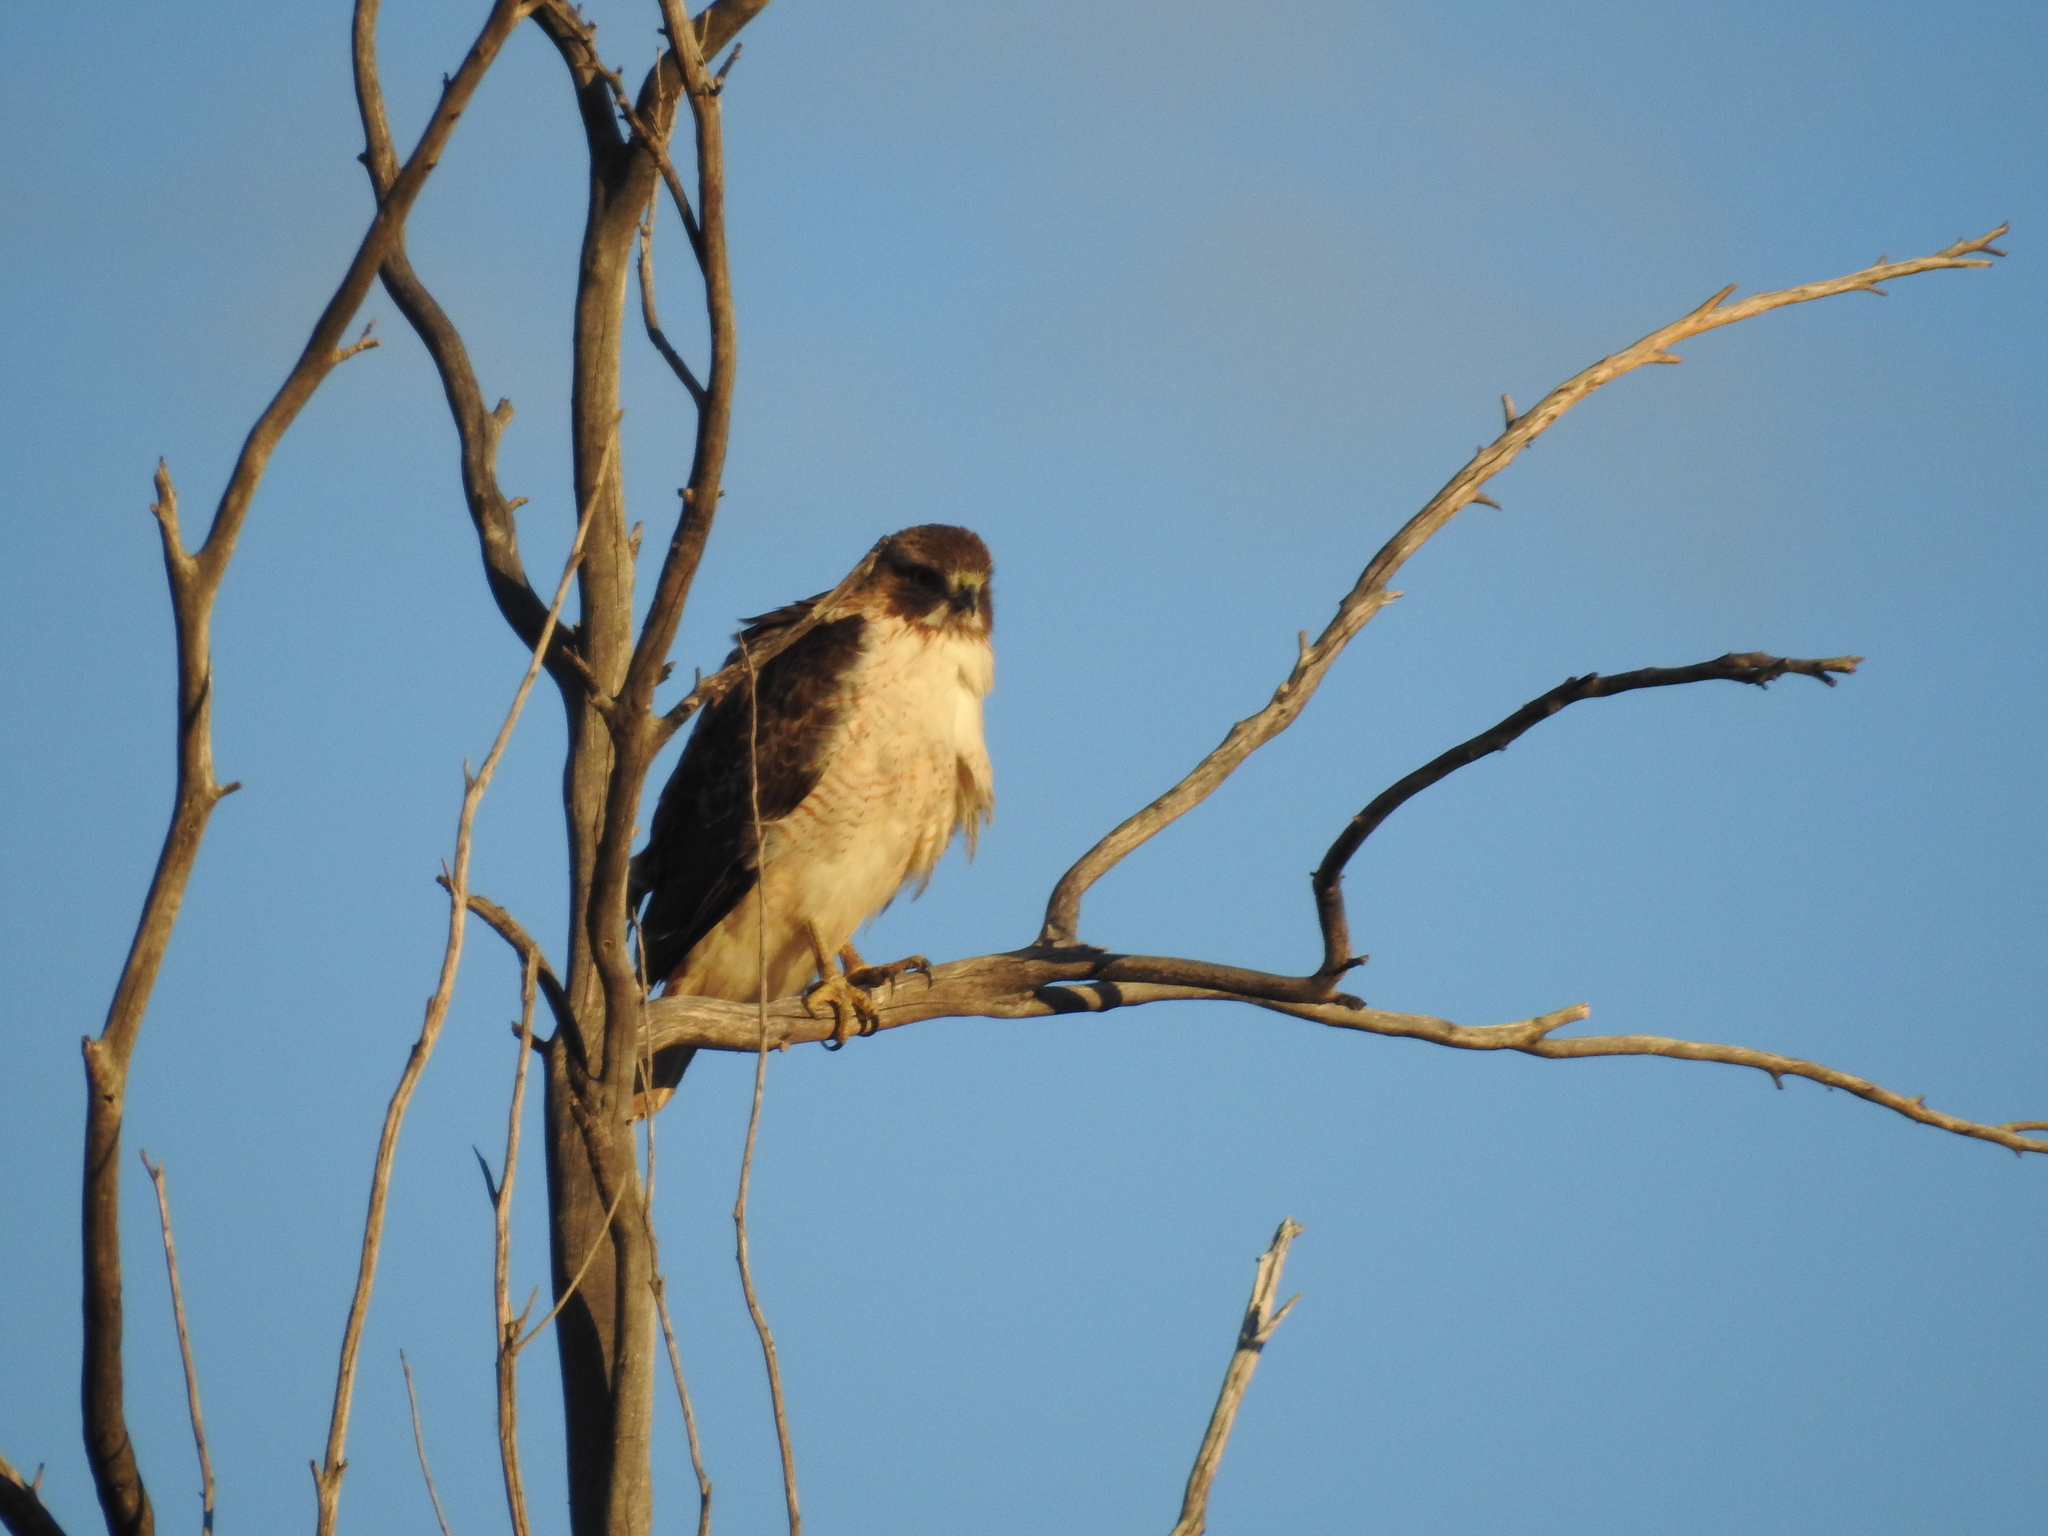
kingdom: Animalia
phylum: Chordata
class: Aves
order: Accipitriformes
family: Accipitridae
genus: Buteo
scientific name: Buteo jamaicensis
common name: Red-tailed hawk
